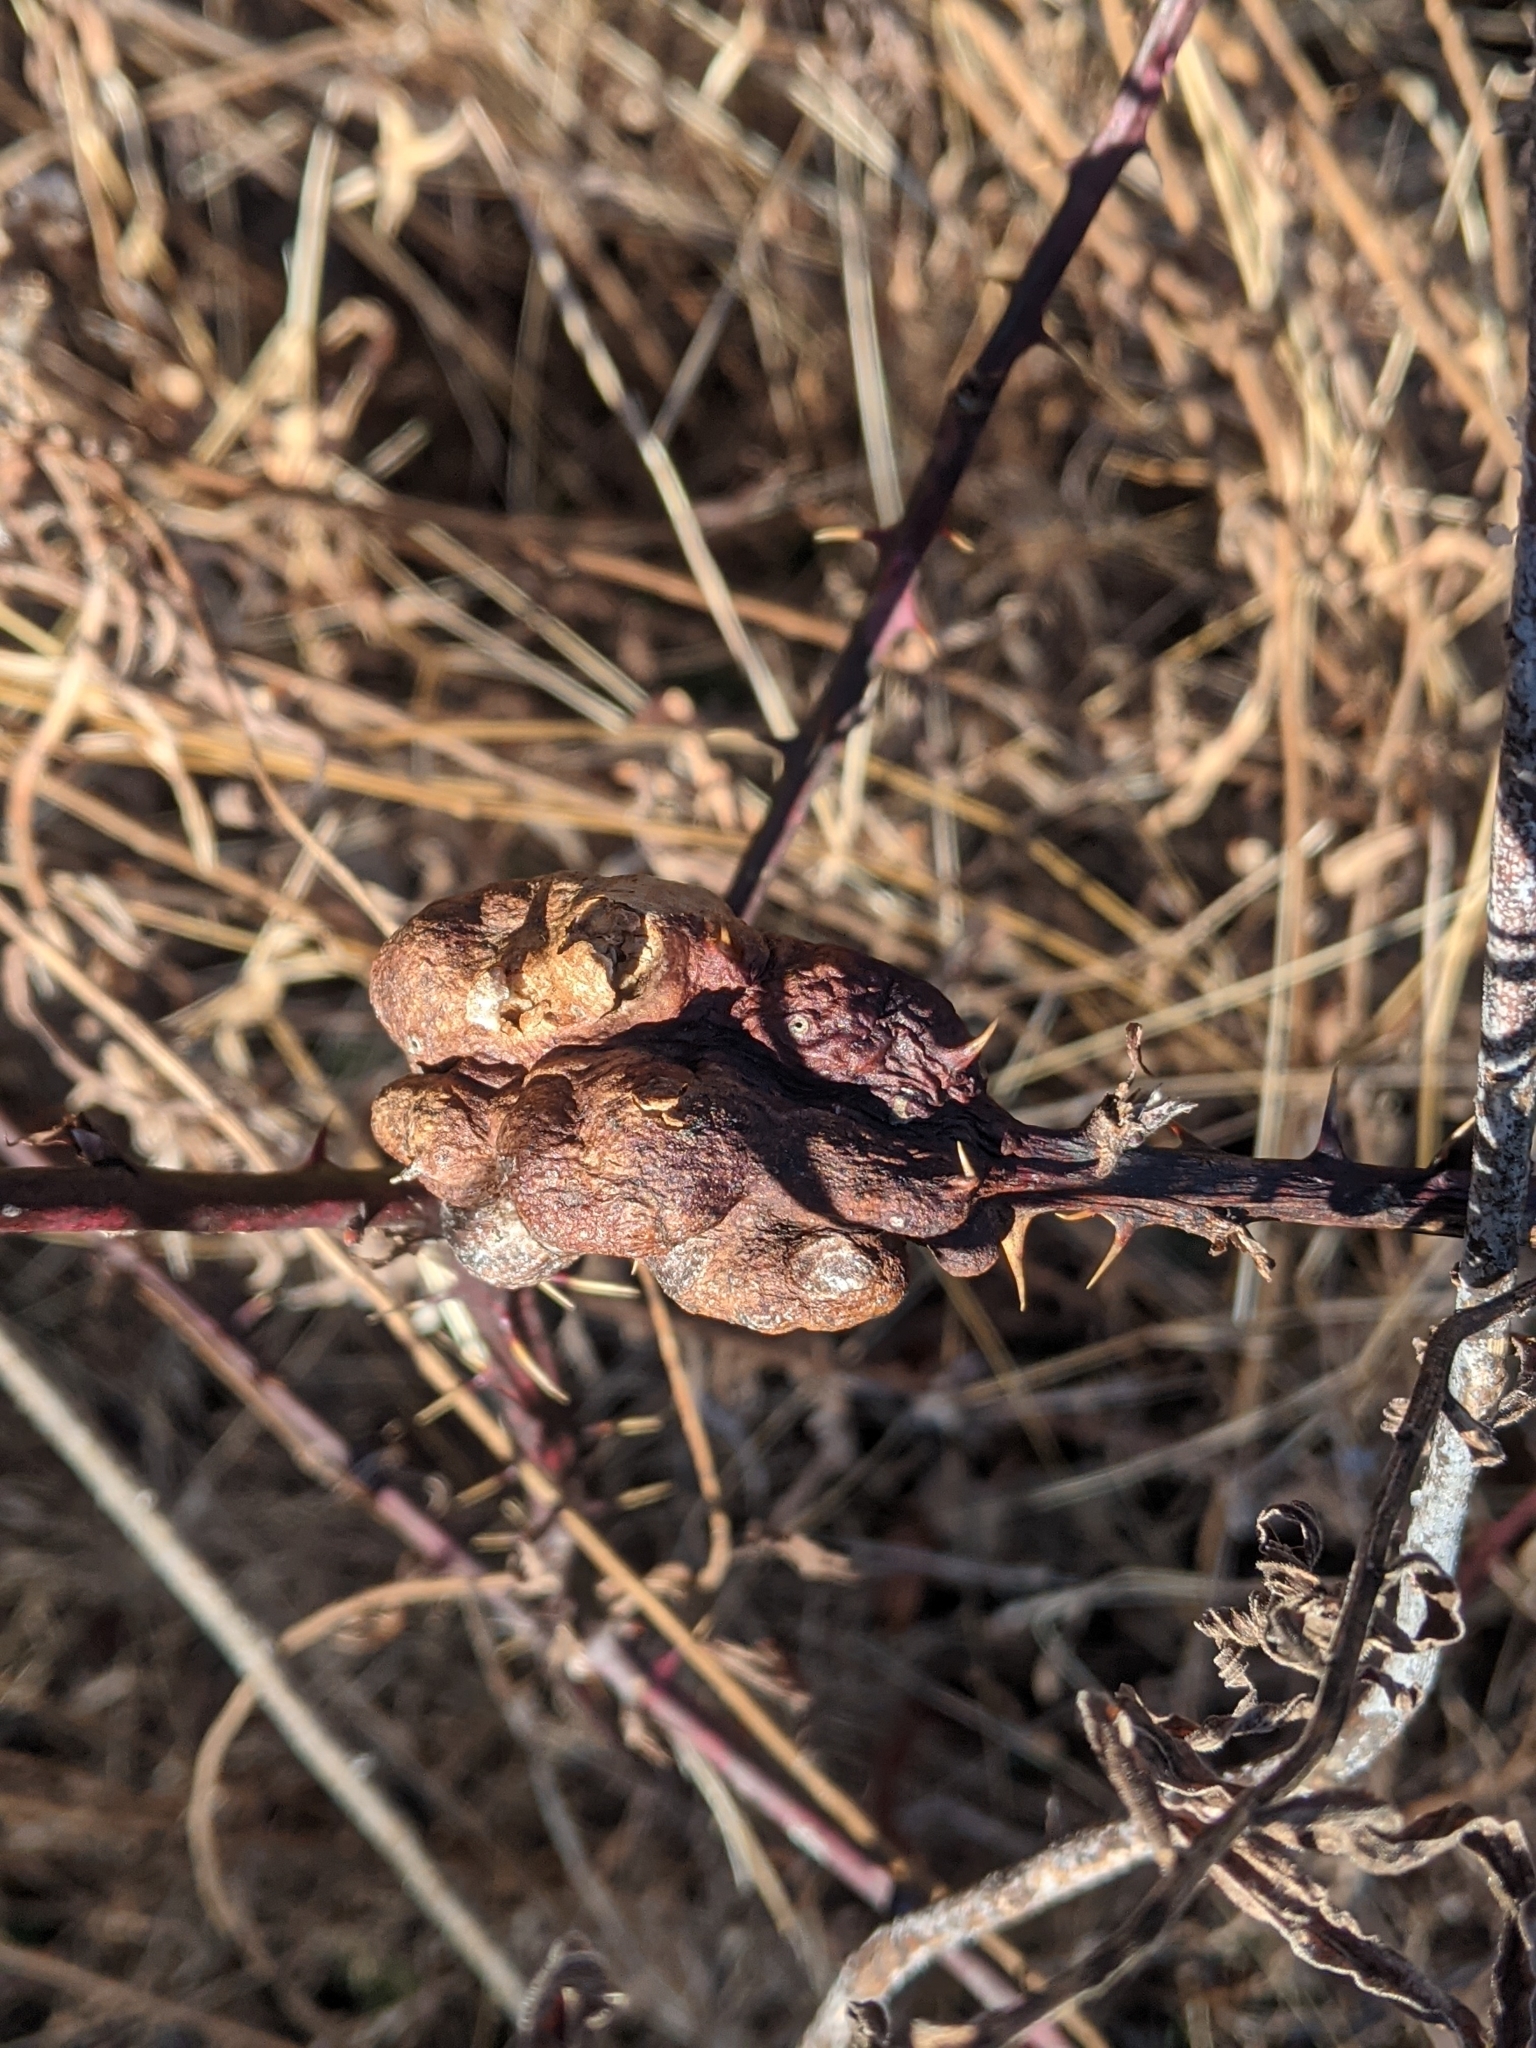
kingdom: Animalia
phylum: Arthropoda
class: Insecta
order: Hymenoptera
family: Cynipidae
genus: Diastrophus
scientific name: Diastrophus
